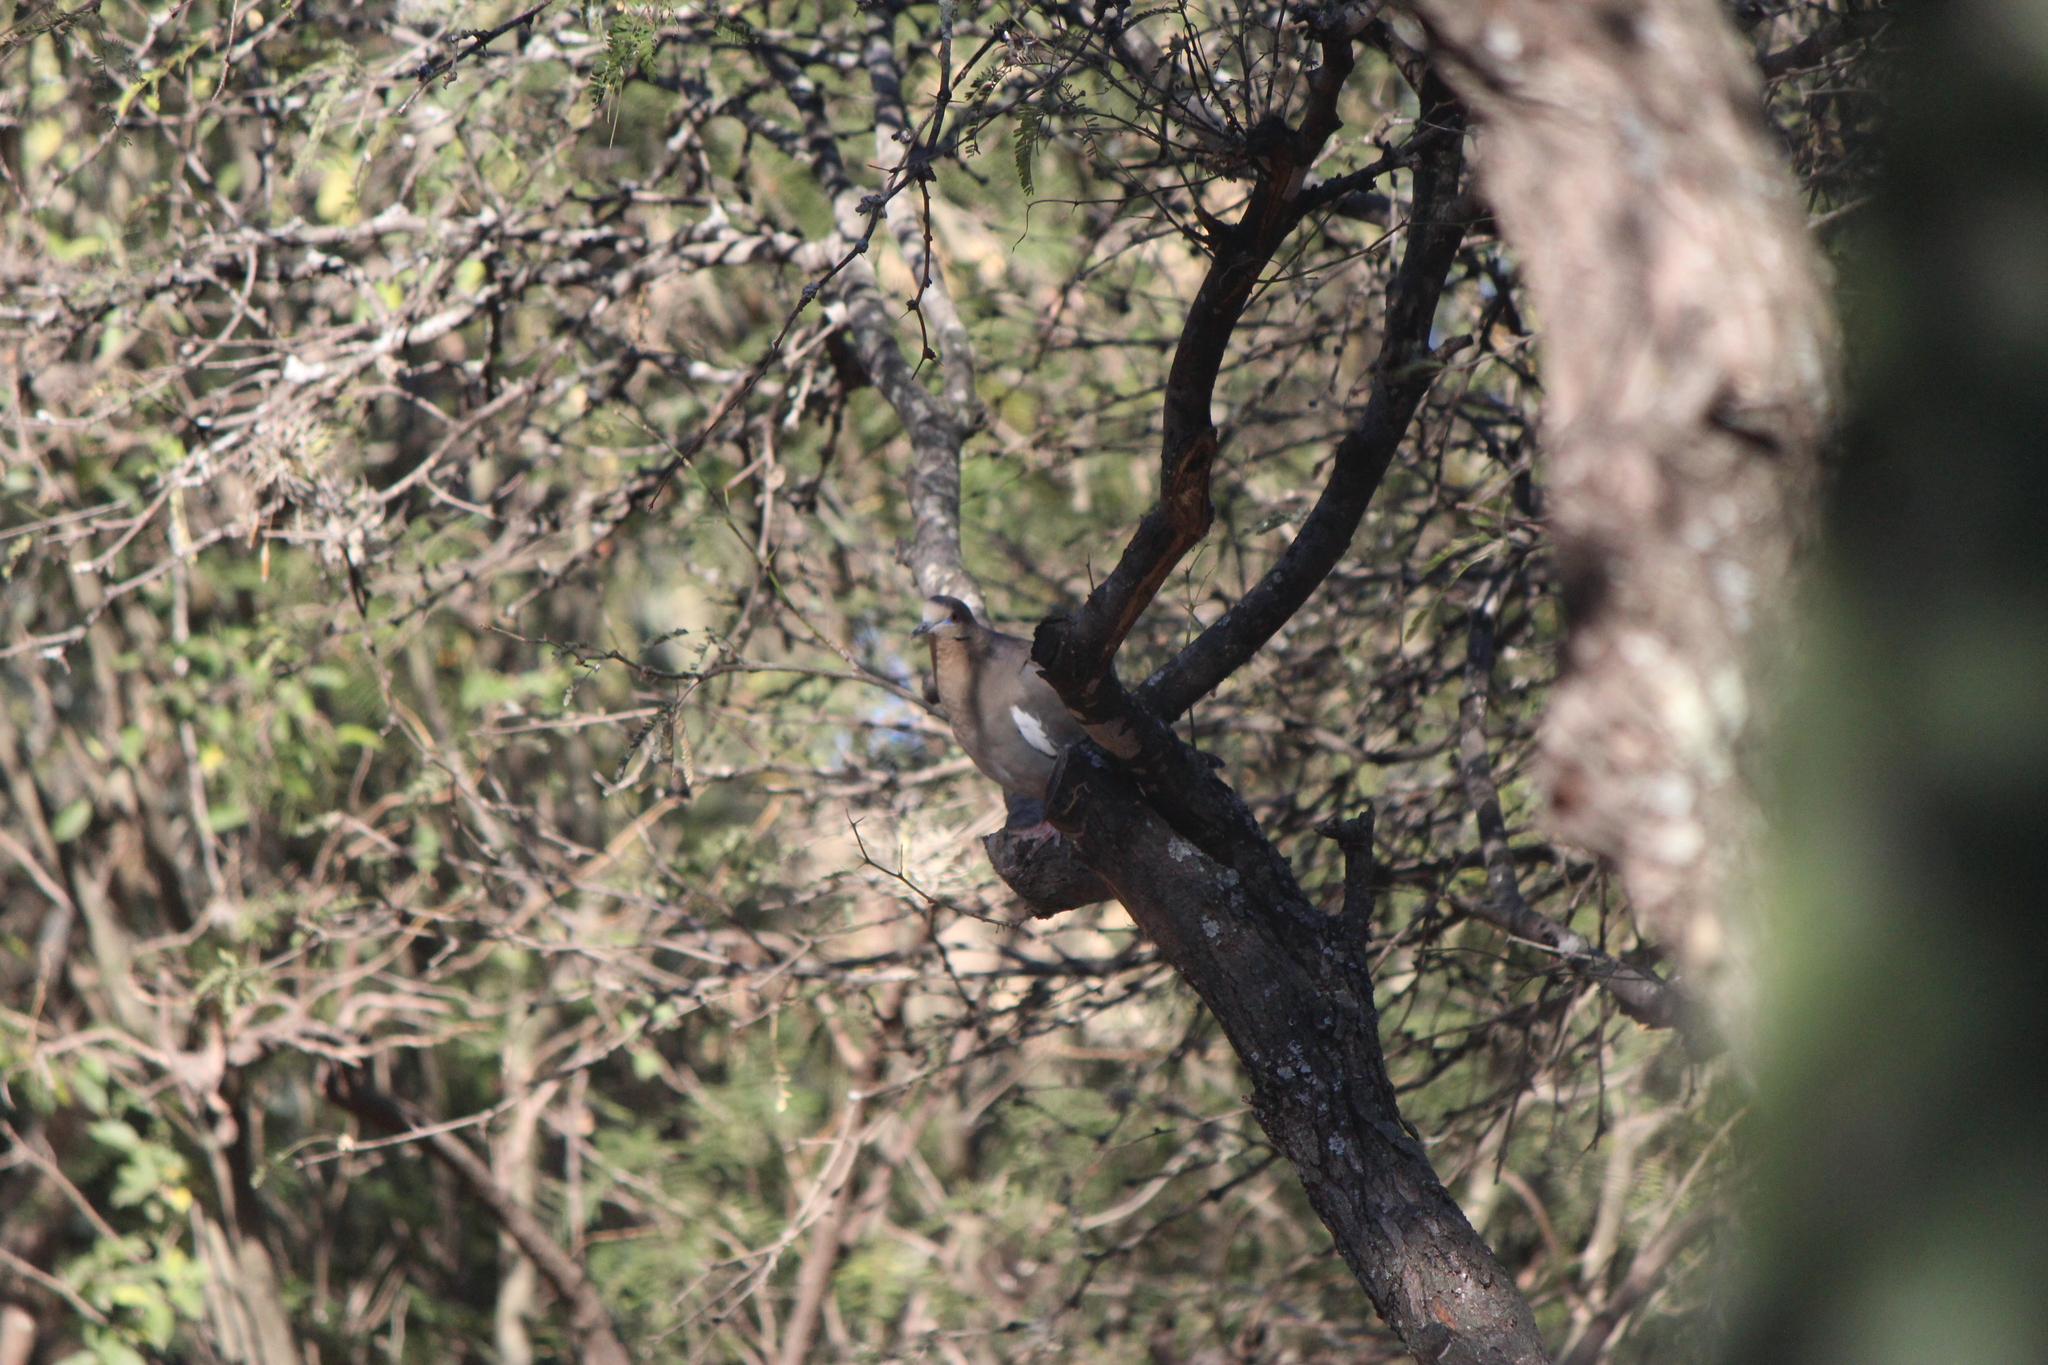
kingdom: Animalia
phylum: Chordata
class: Aves
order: Columbiformes
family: Columbidae
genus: Zenaida
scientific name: Zenaida asiatica
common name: White-winged dove
